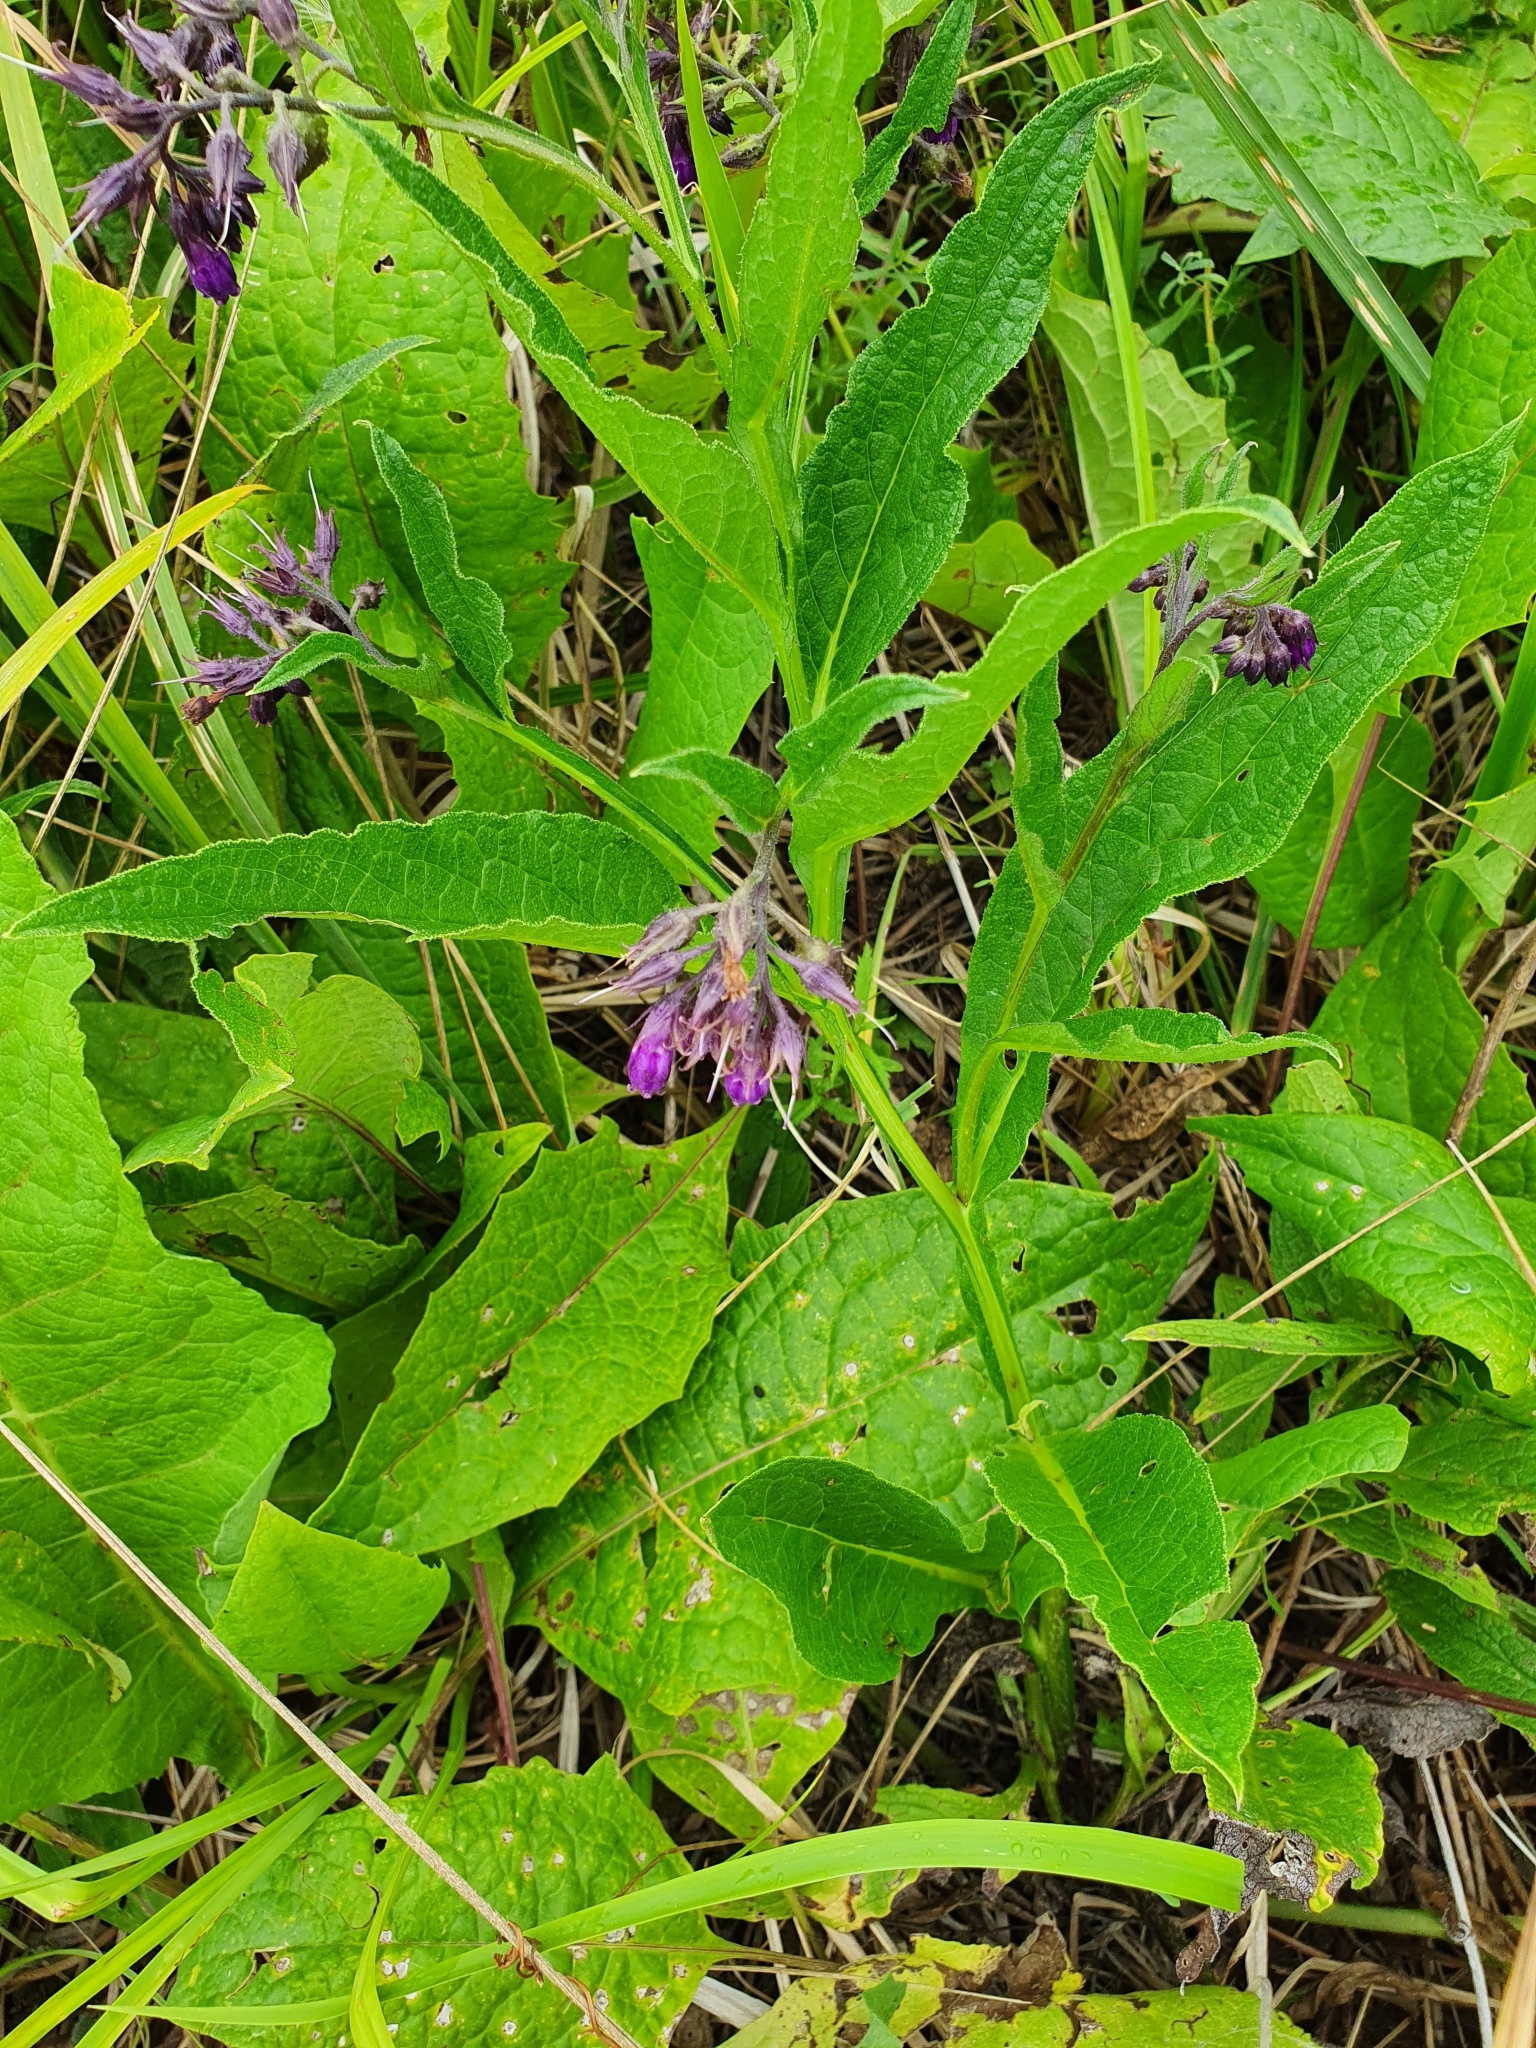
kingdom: Plantae
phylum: Tracheophyta
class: Magnoliopsida
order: Boraginales
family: Boraginaceae
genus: Symphytum
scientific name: Symphytum officinale
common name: Common comfrey
